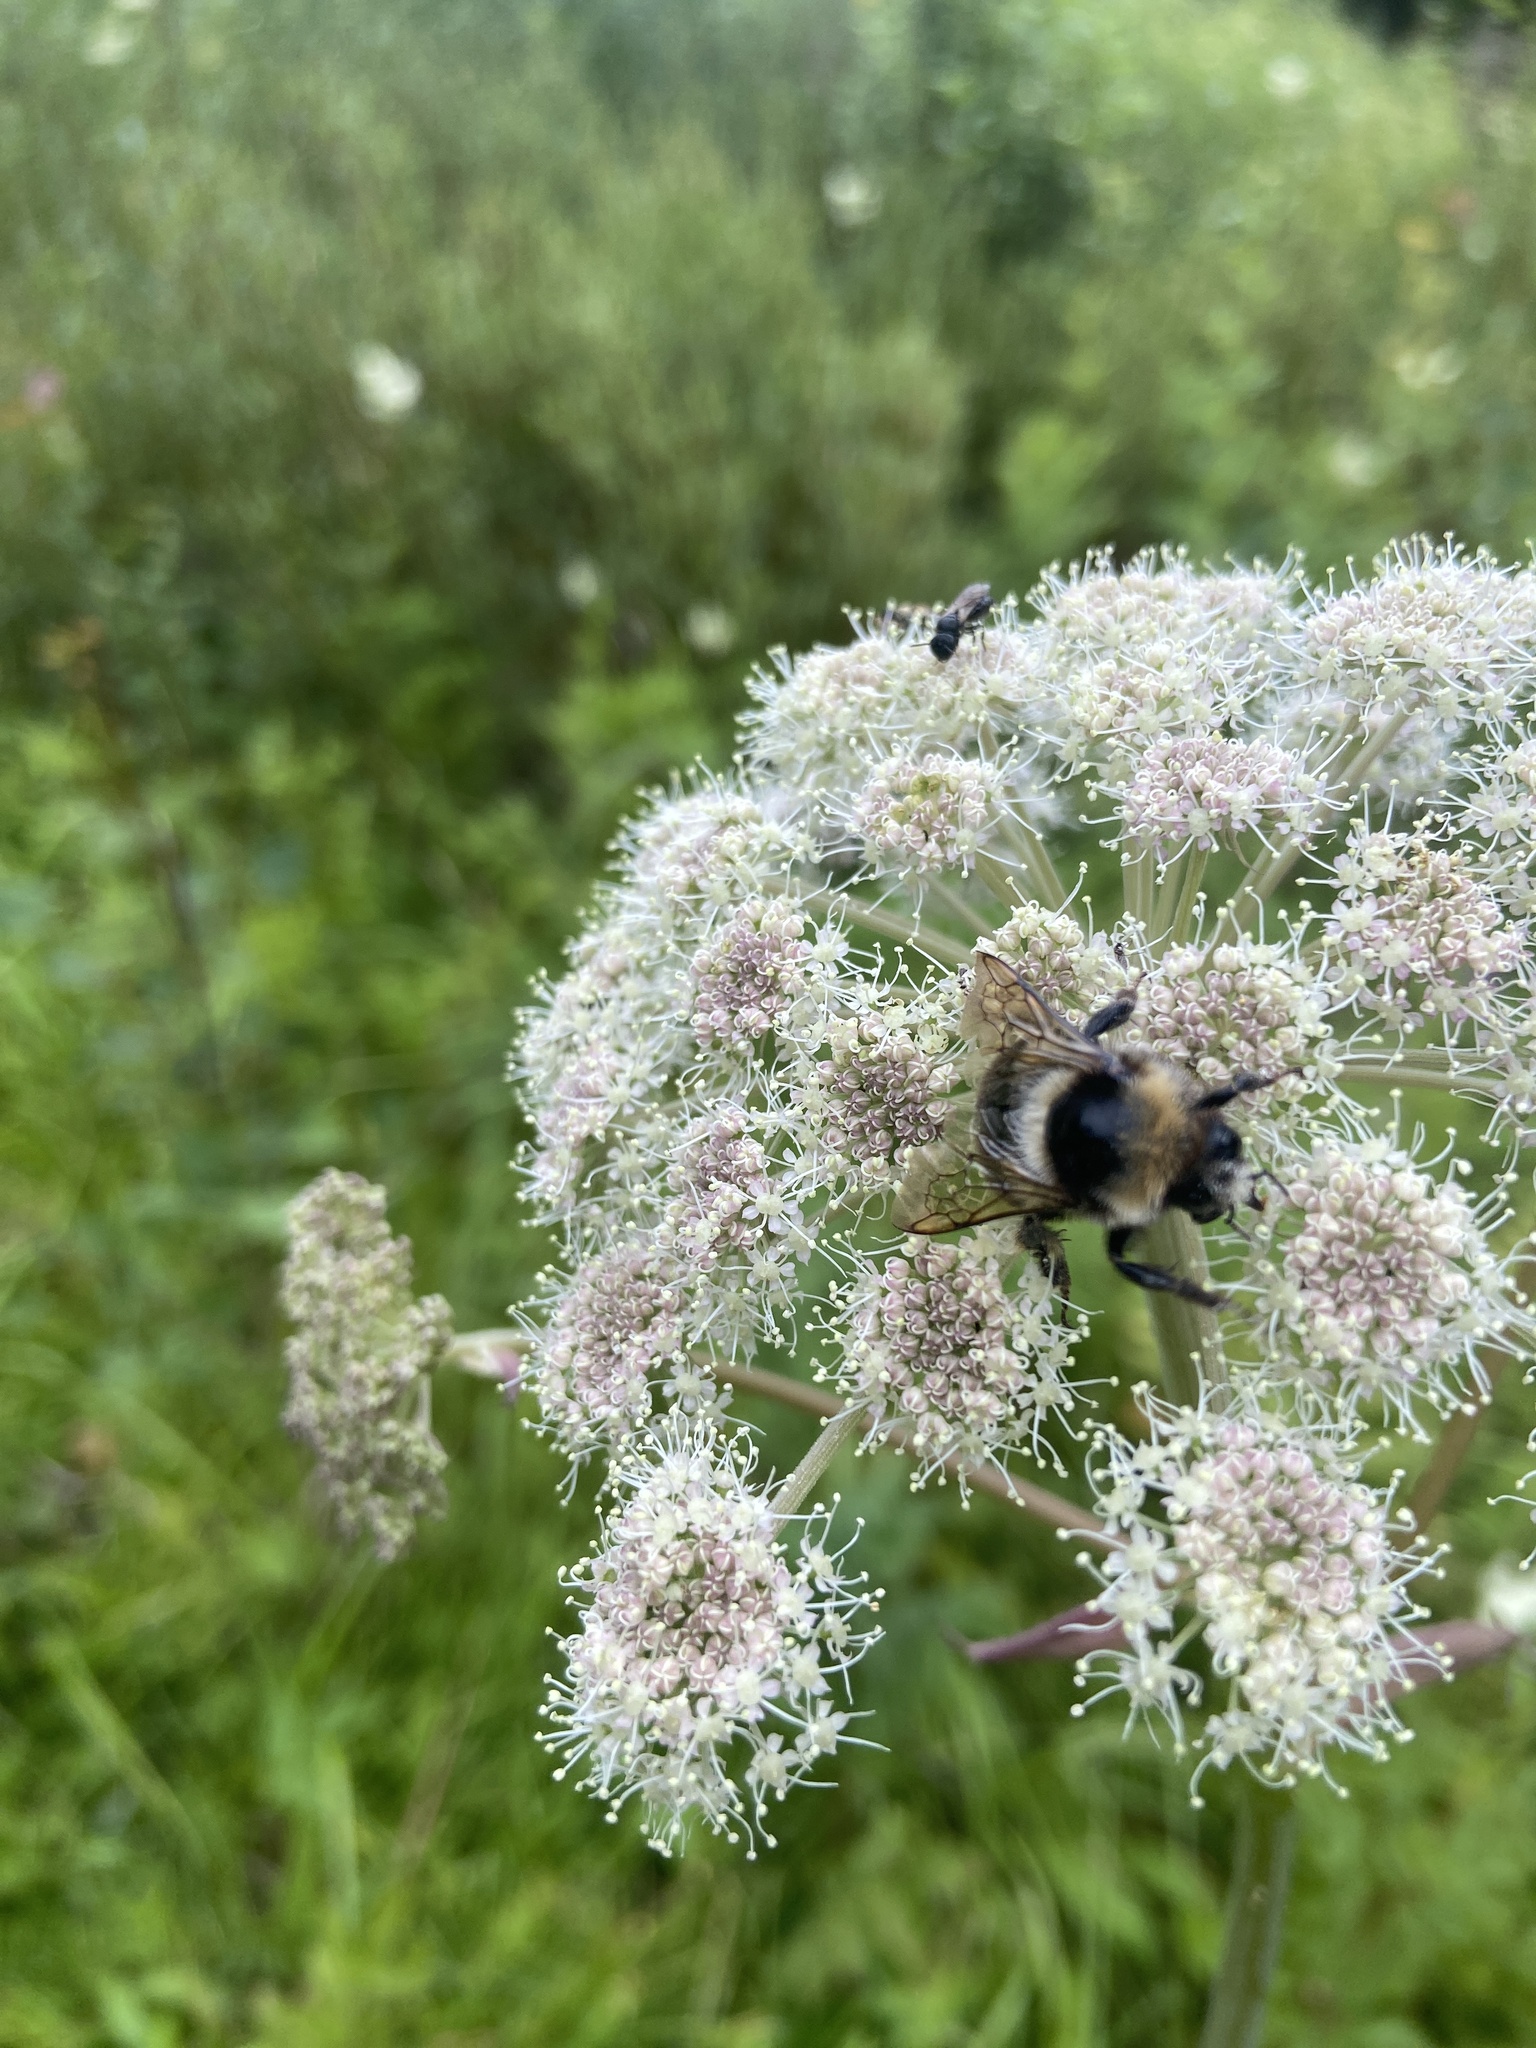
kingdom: Animalia
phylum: Arthropoda
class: Insecta
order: Hymenoptera
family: Apidae
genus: Bombus
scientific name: Bombus semenoviellus
